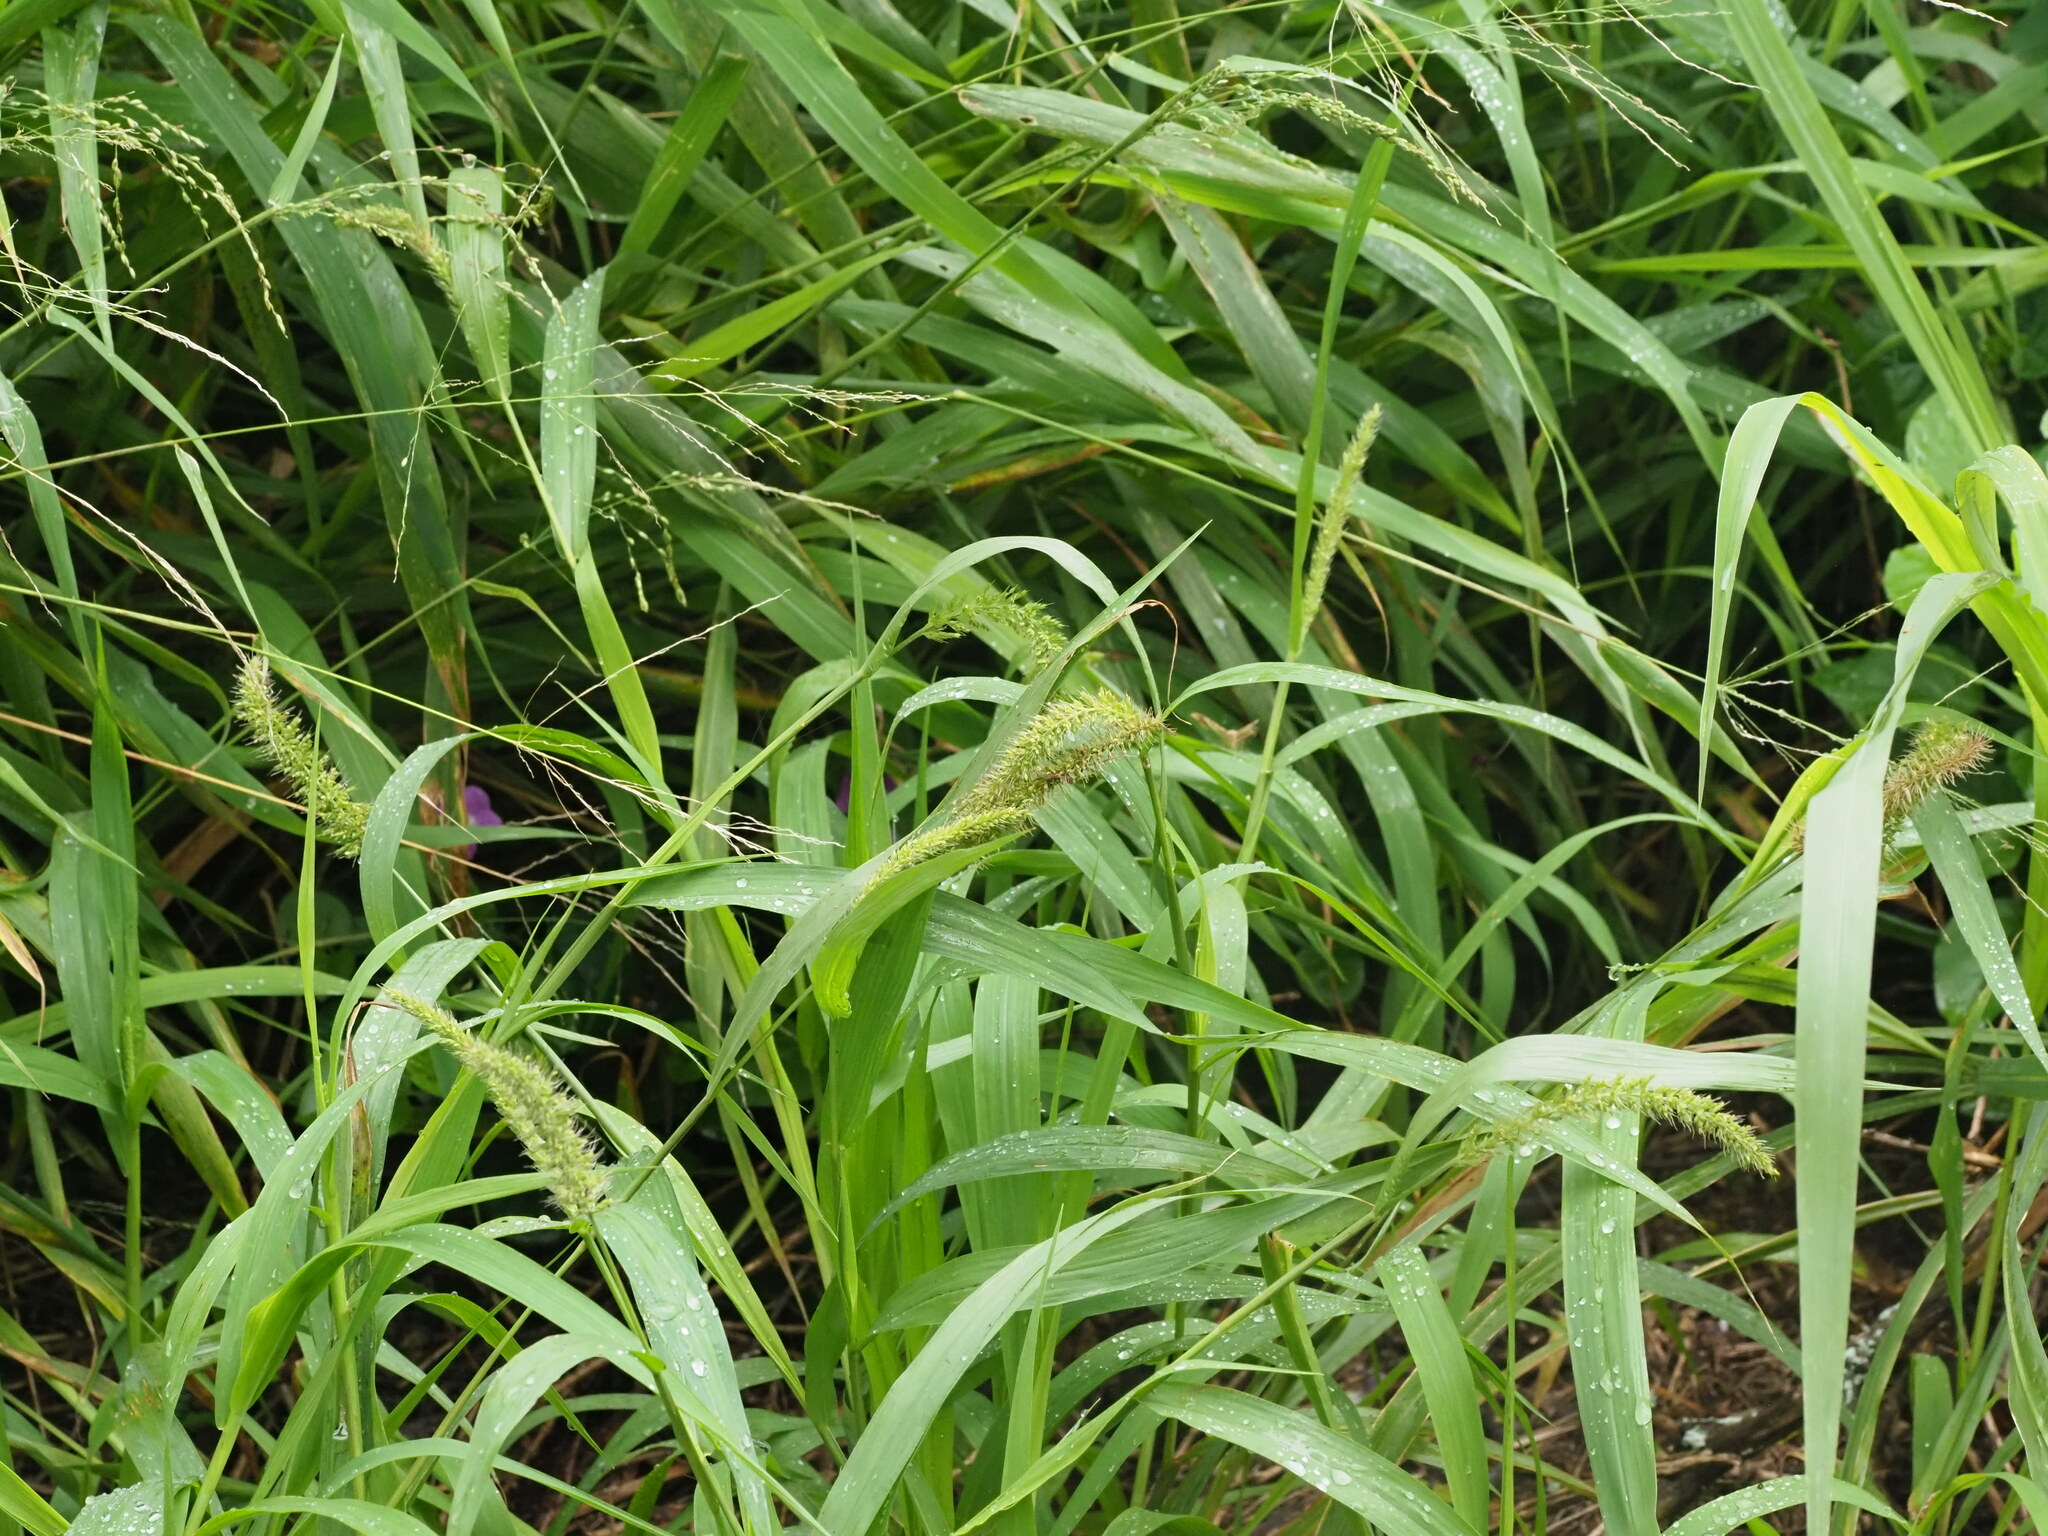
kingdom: Plantae
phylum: Tracheophyta
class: Liliopsida
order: Poales
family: Poaceae
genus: Megathyrsus
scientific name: Megathyrsus maximus
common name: Guineagrass
